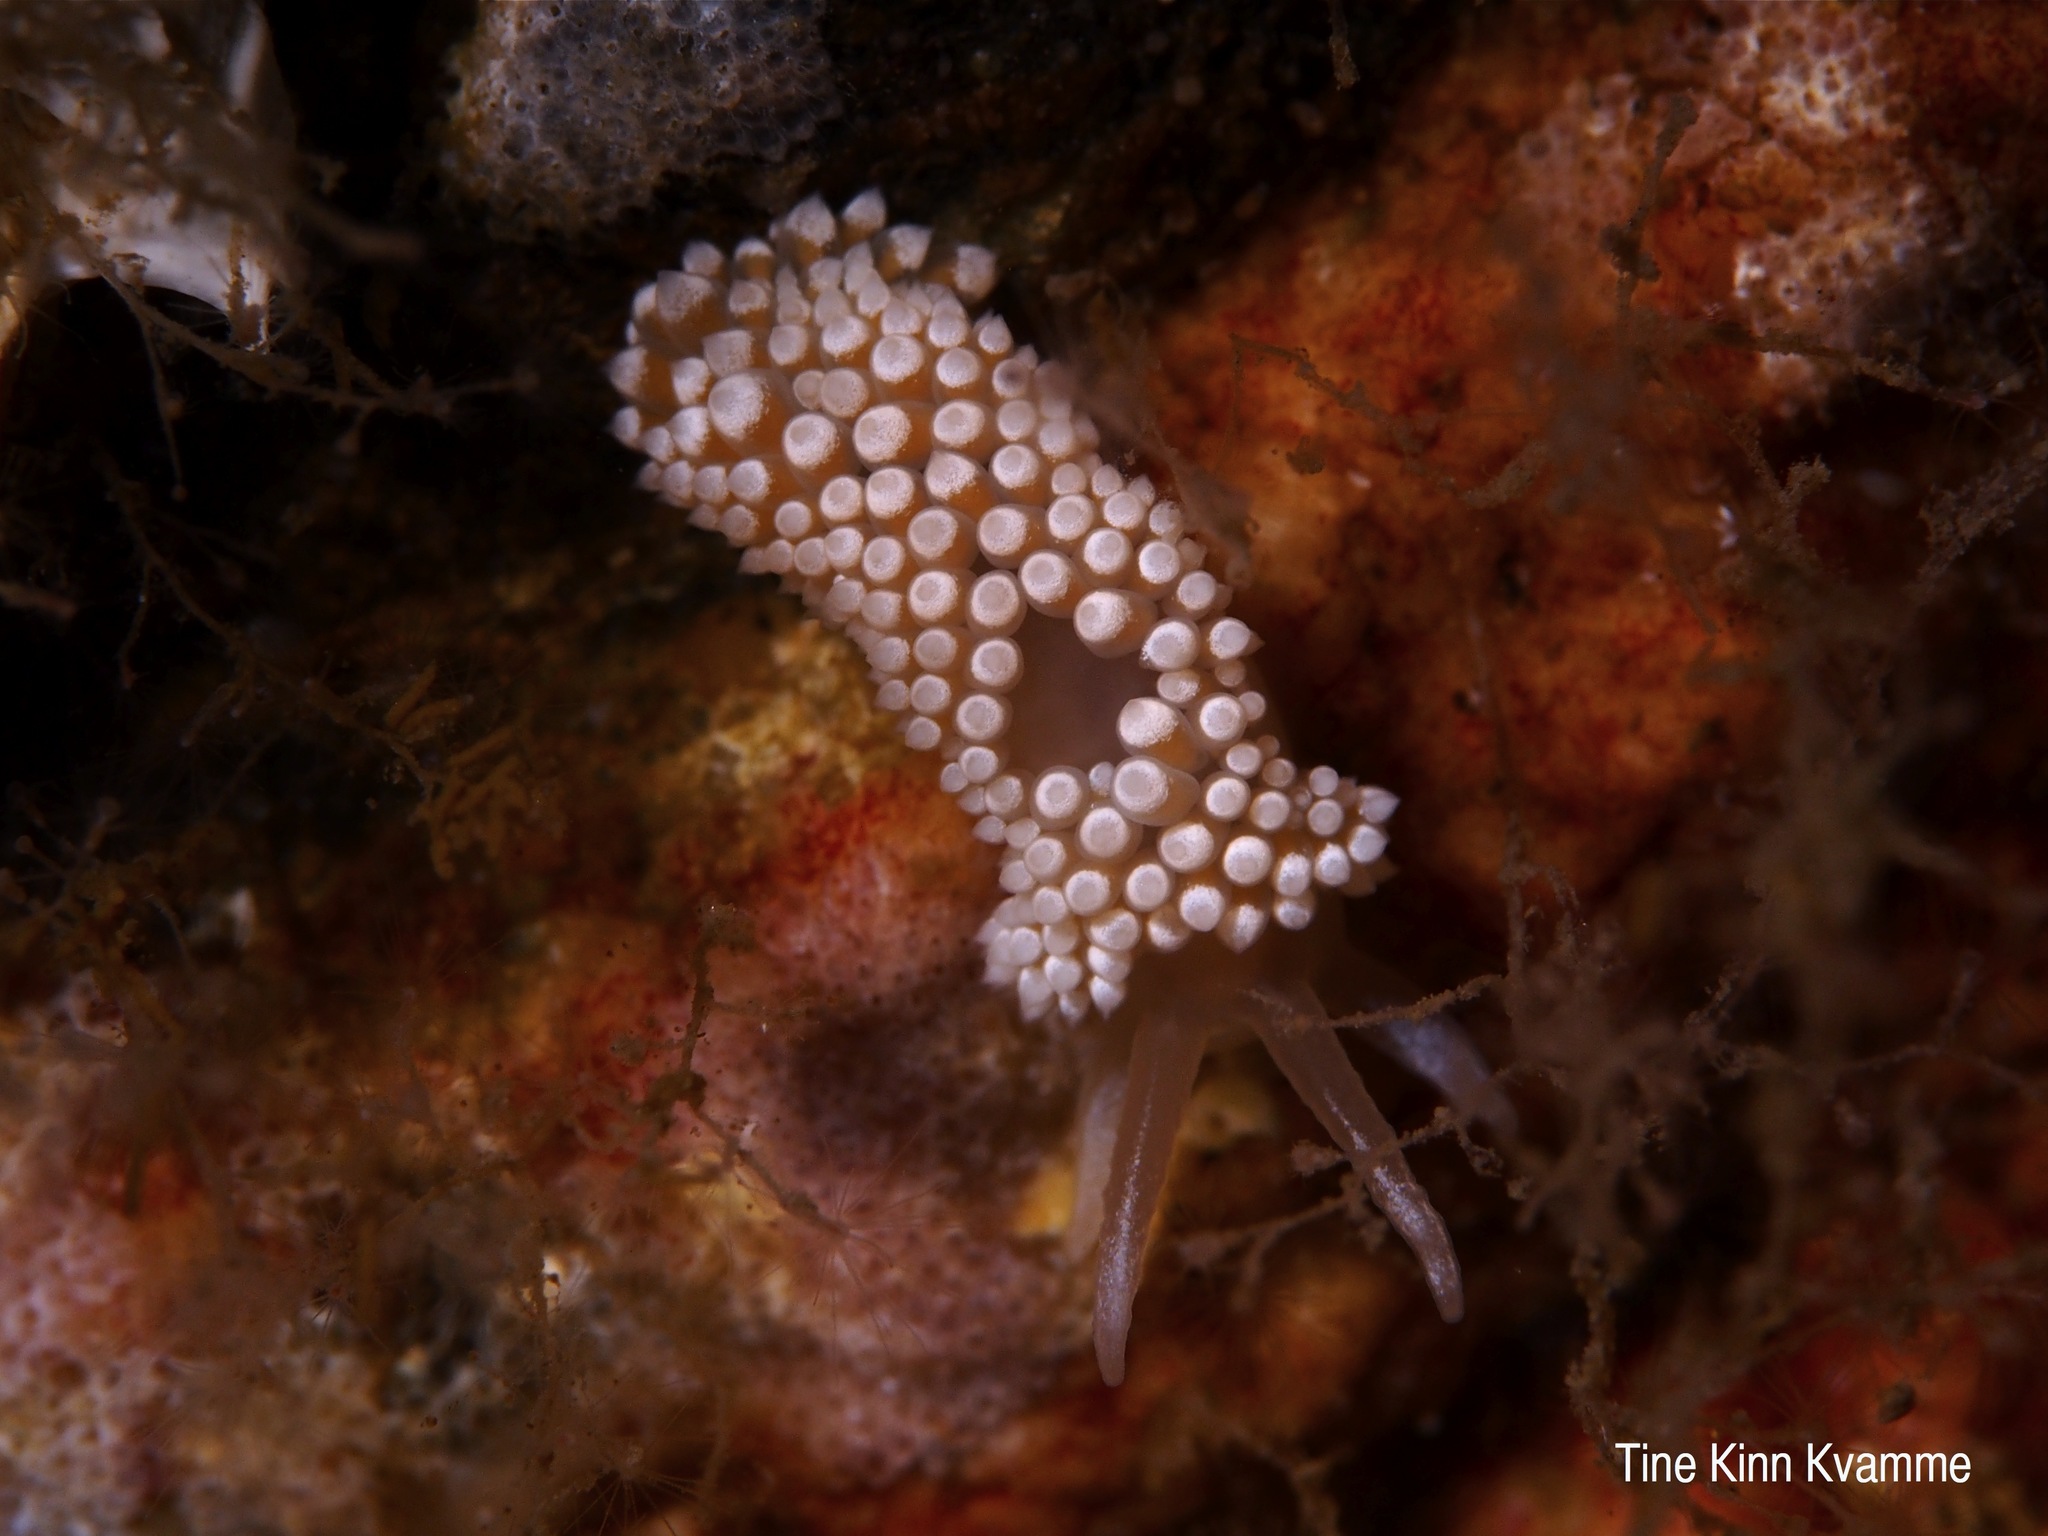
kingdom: Animalia
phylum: Mollusca
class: Gastropoda
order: Nudibranchia
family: Coryphellidae
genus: Coryphella
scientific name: Coryphella verrucosa
